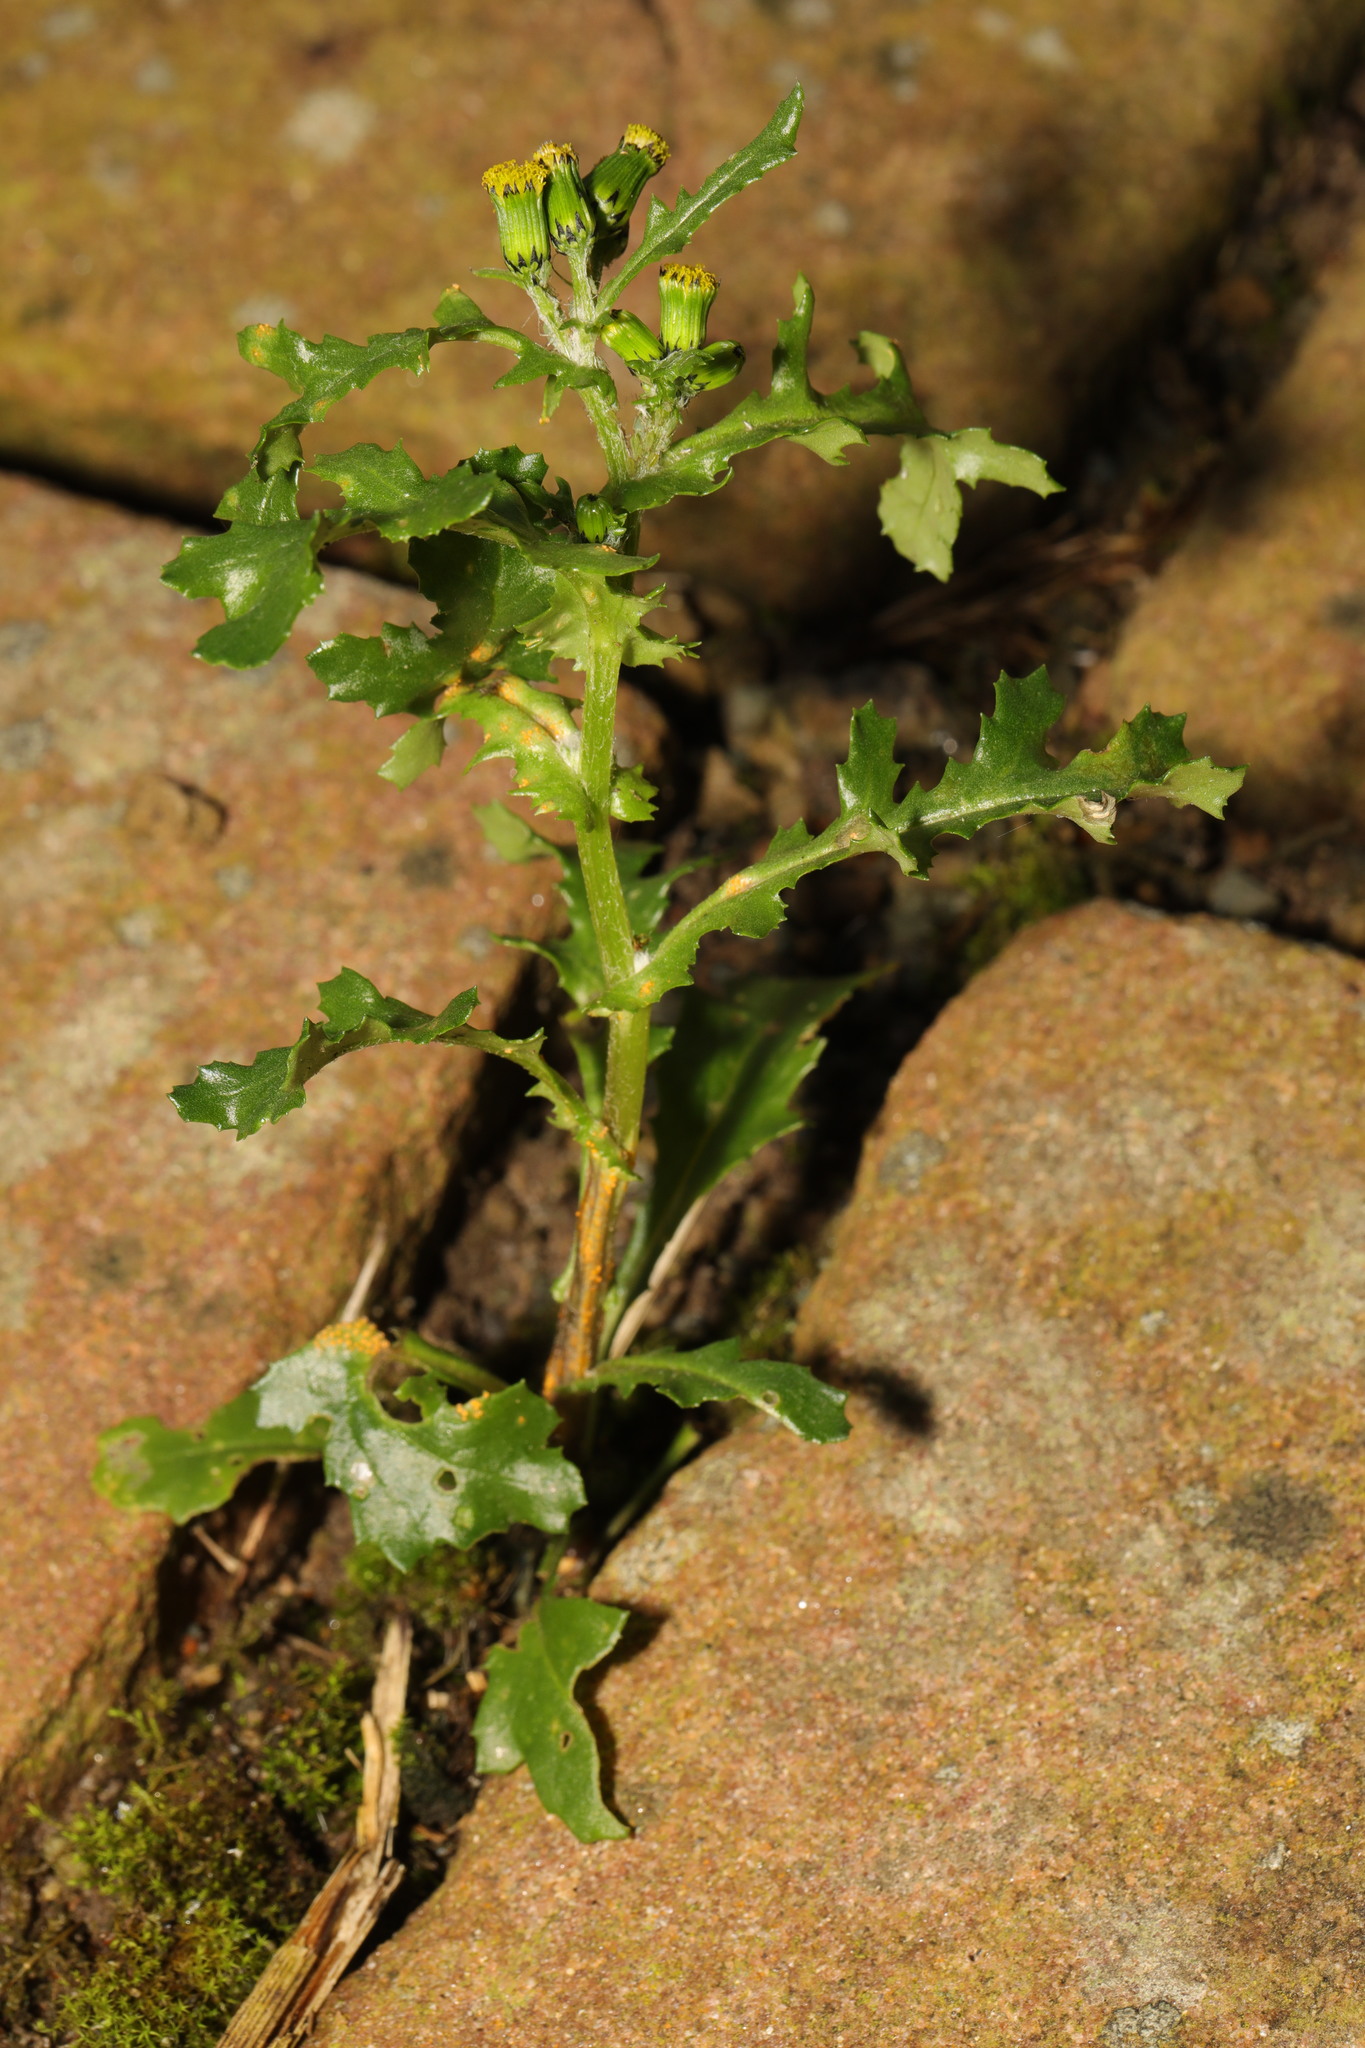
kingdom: Plantae
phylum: Tracheophyta
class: Magnoliopsida
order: Asterales
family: Asteraceae
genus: Senecio
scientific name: Senecio vulgaris
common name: Old-man-in-the-spring
